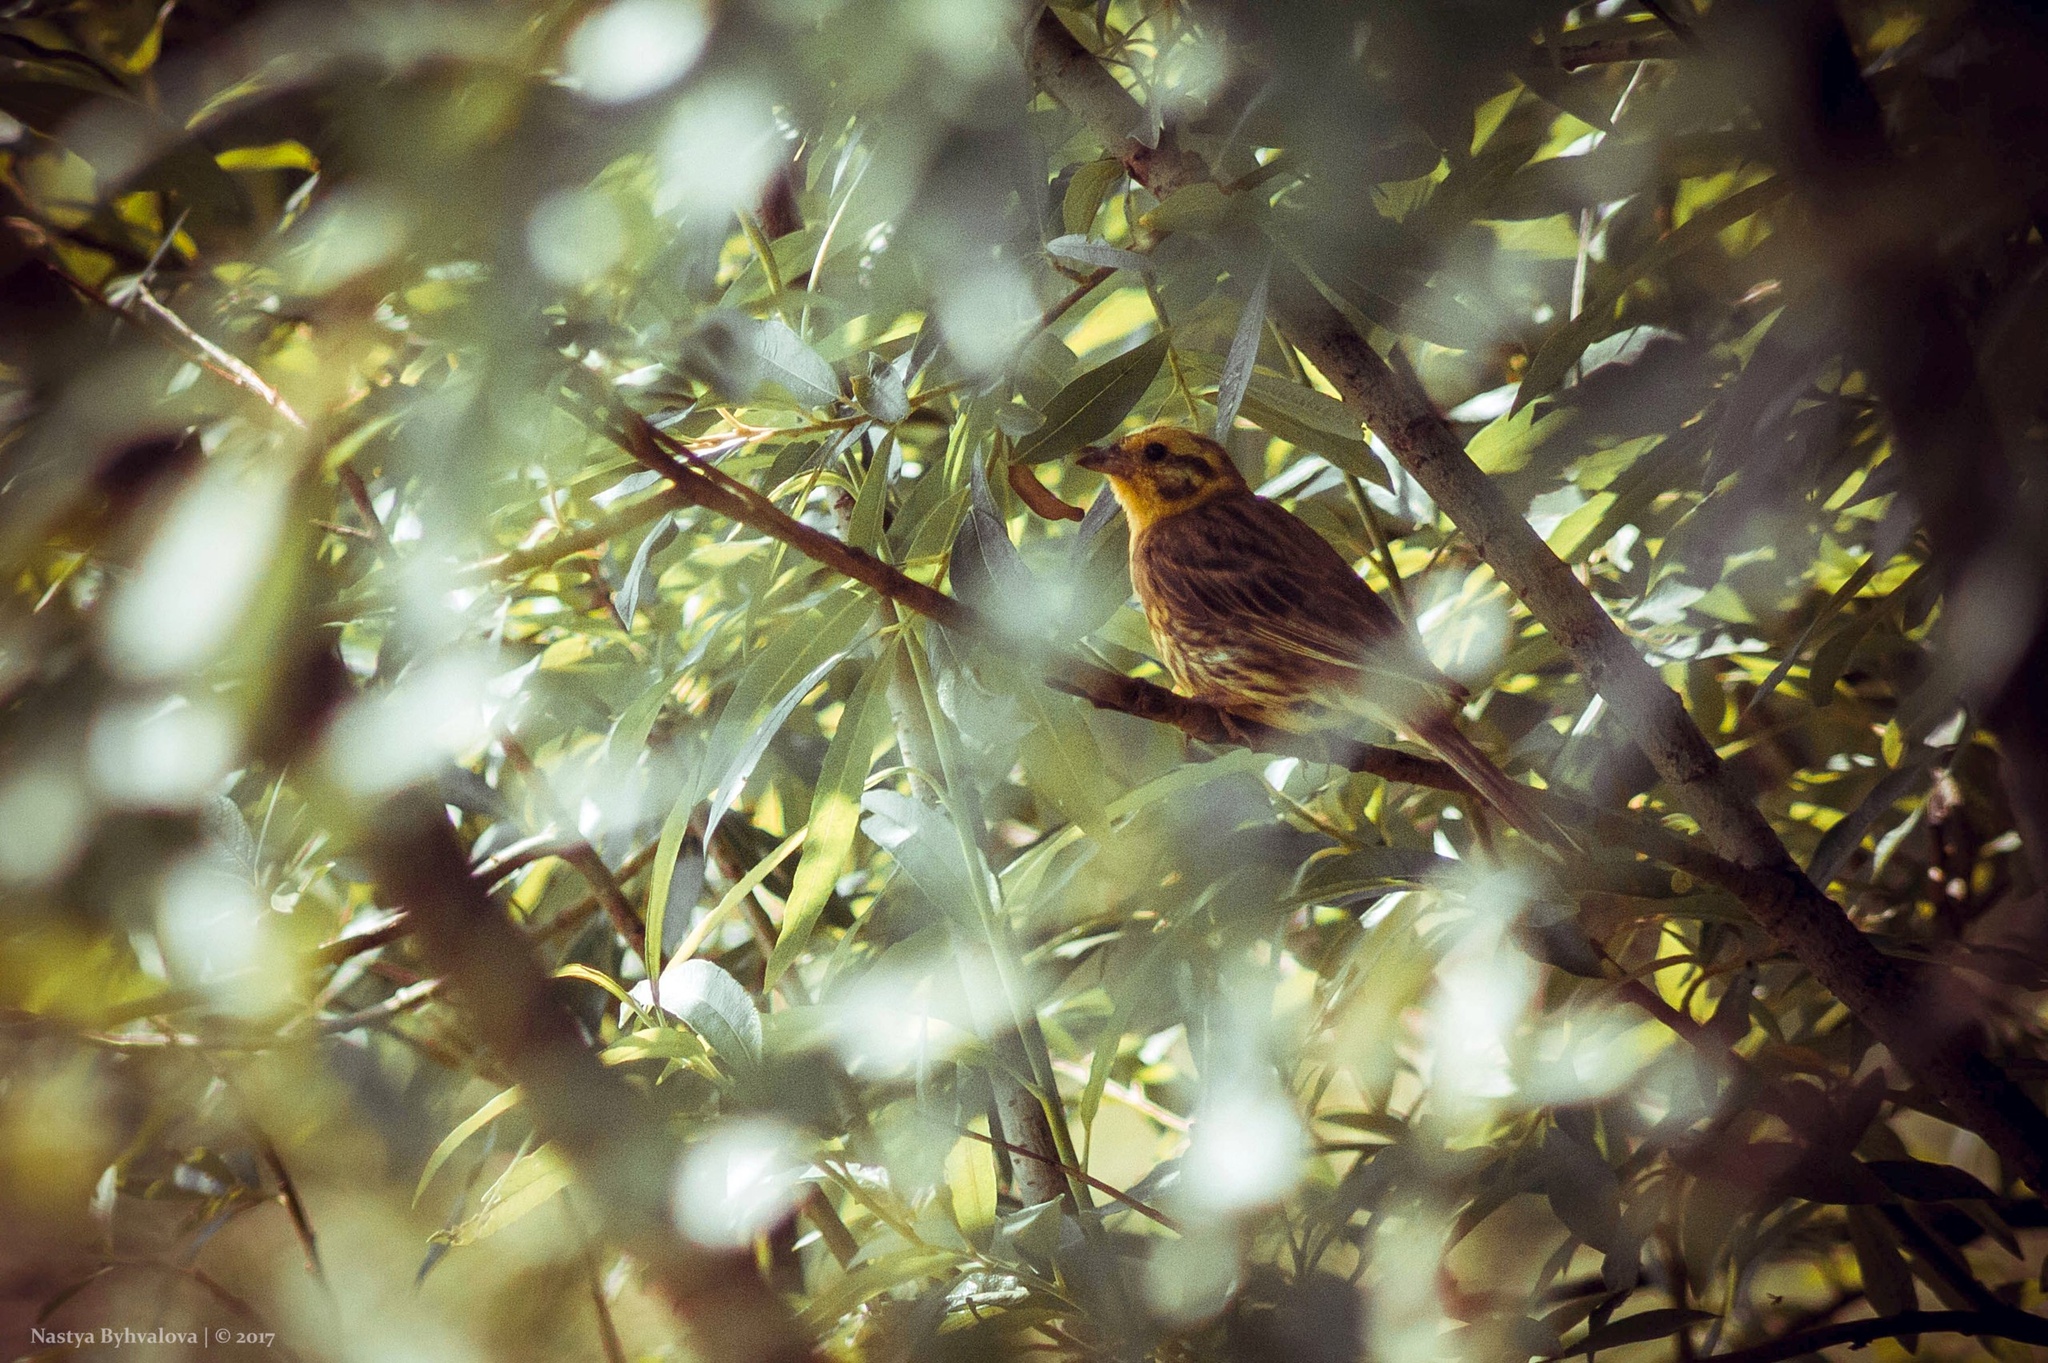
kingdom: Animalia
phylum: Chordata
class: Aves
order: Passeriformes
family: Emberizidae
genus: Emberiza
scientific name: Emberiza citrinella
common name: Yellowhammer
